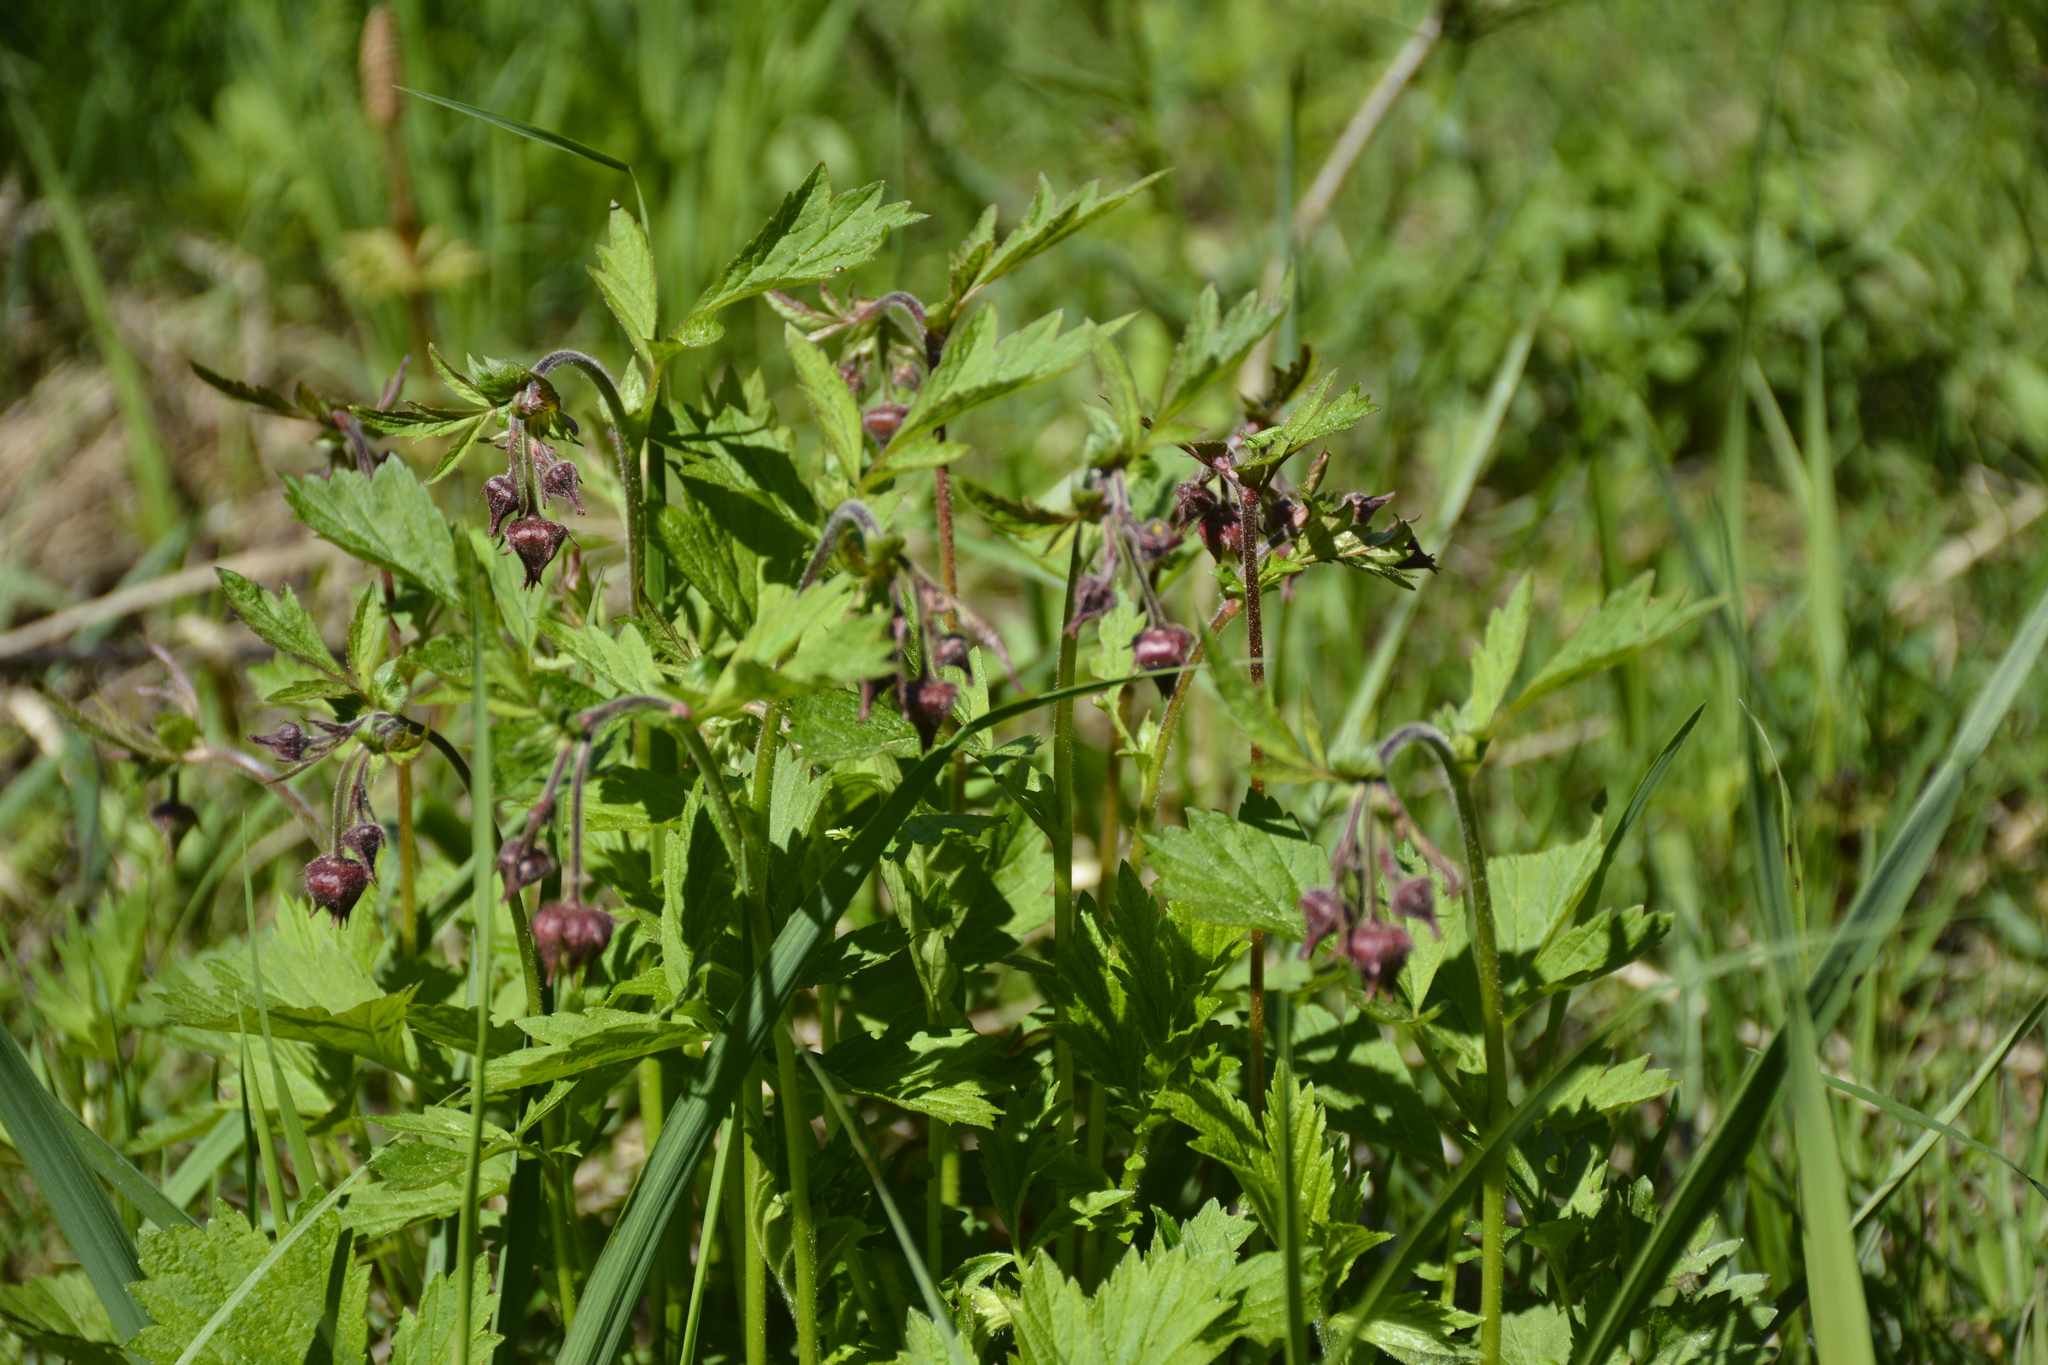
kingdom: Plantae
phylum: Tracheophyta
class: Magnoliopsida
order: Rosales
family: Rosaceae
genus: Geum
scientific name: Geum rivale
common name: Water avens
